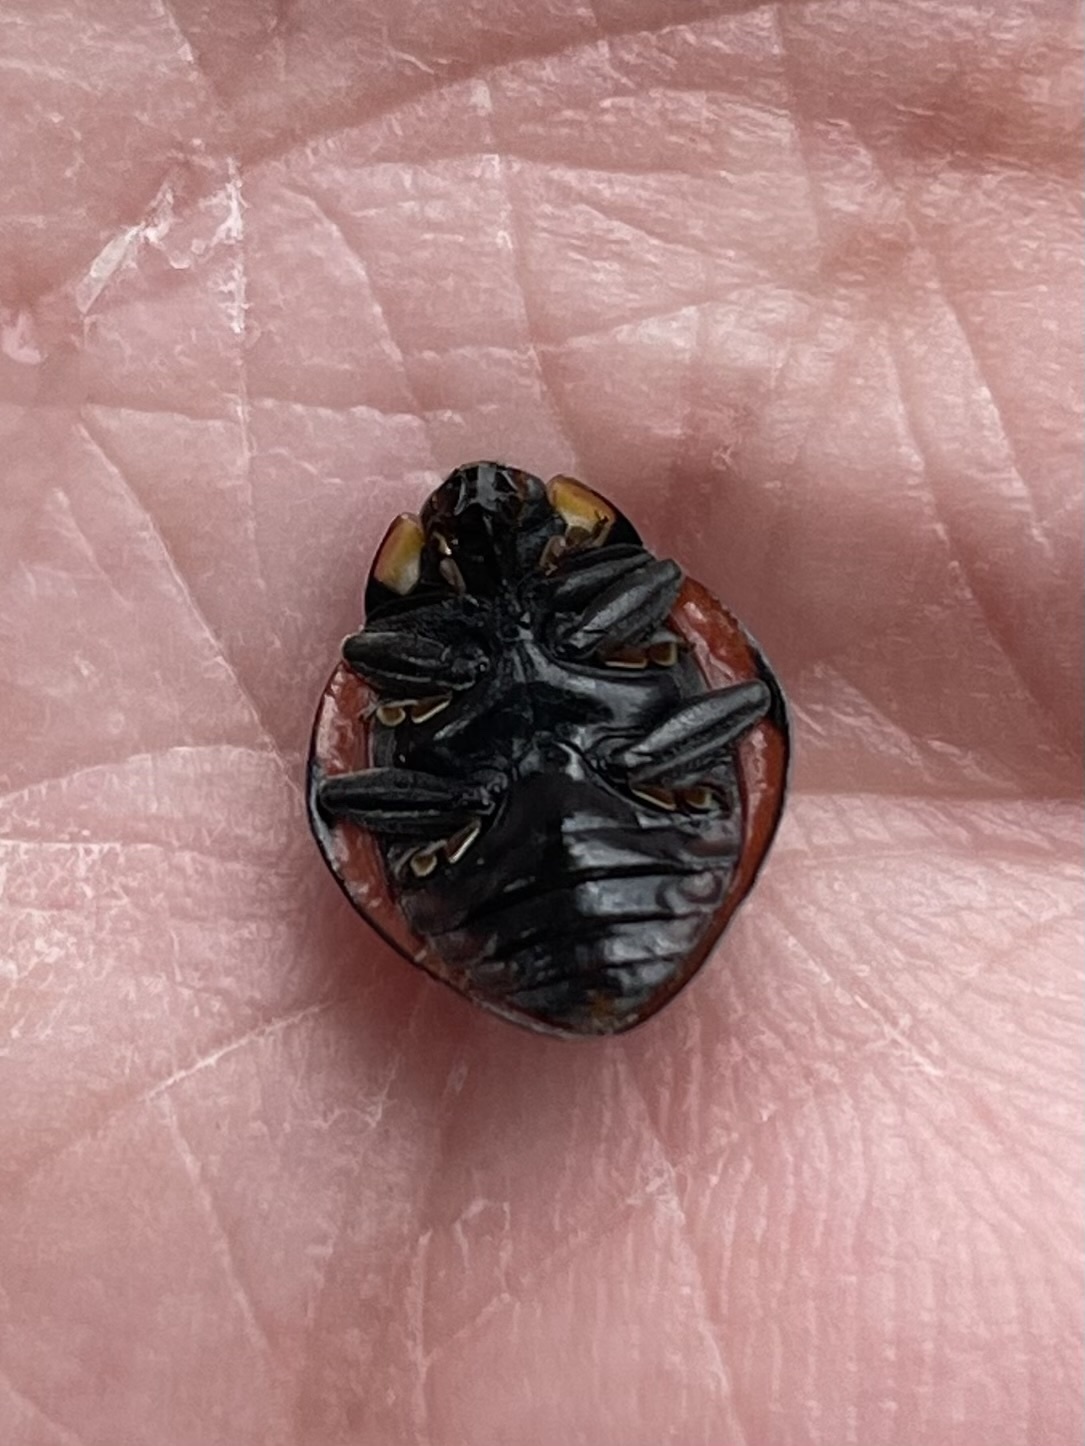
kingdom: Animalia
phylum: Arthropoda
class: Insecta
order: Coleoptera
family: Coccinellidae
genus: Anatis
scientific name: Anatis rathvoni
